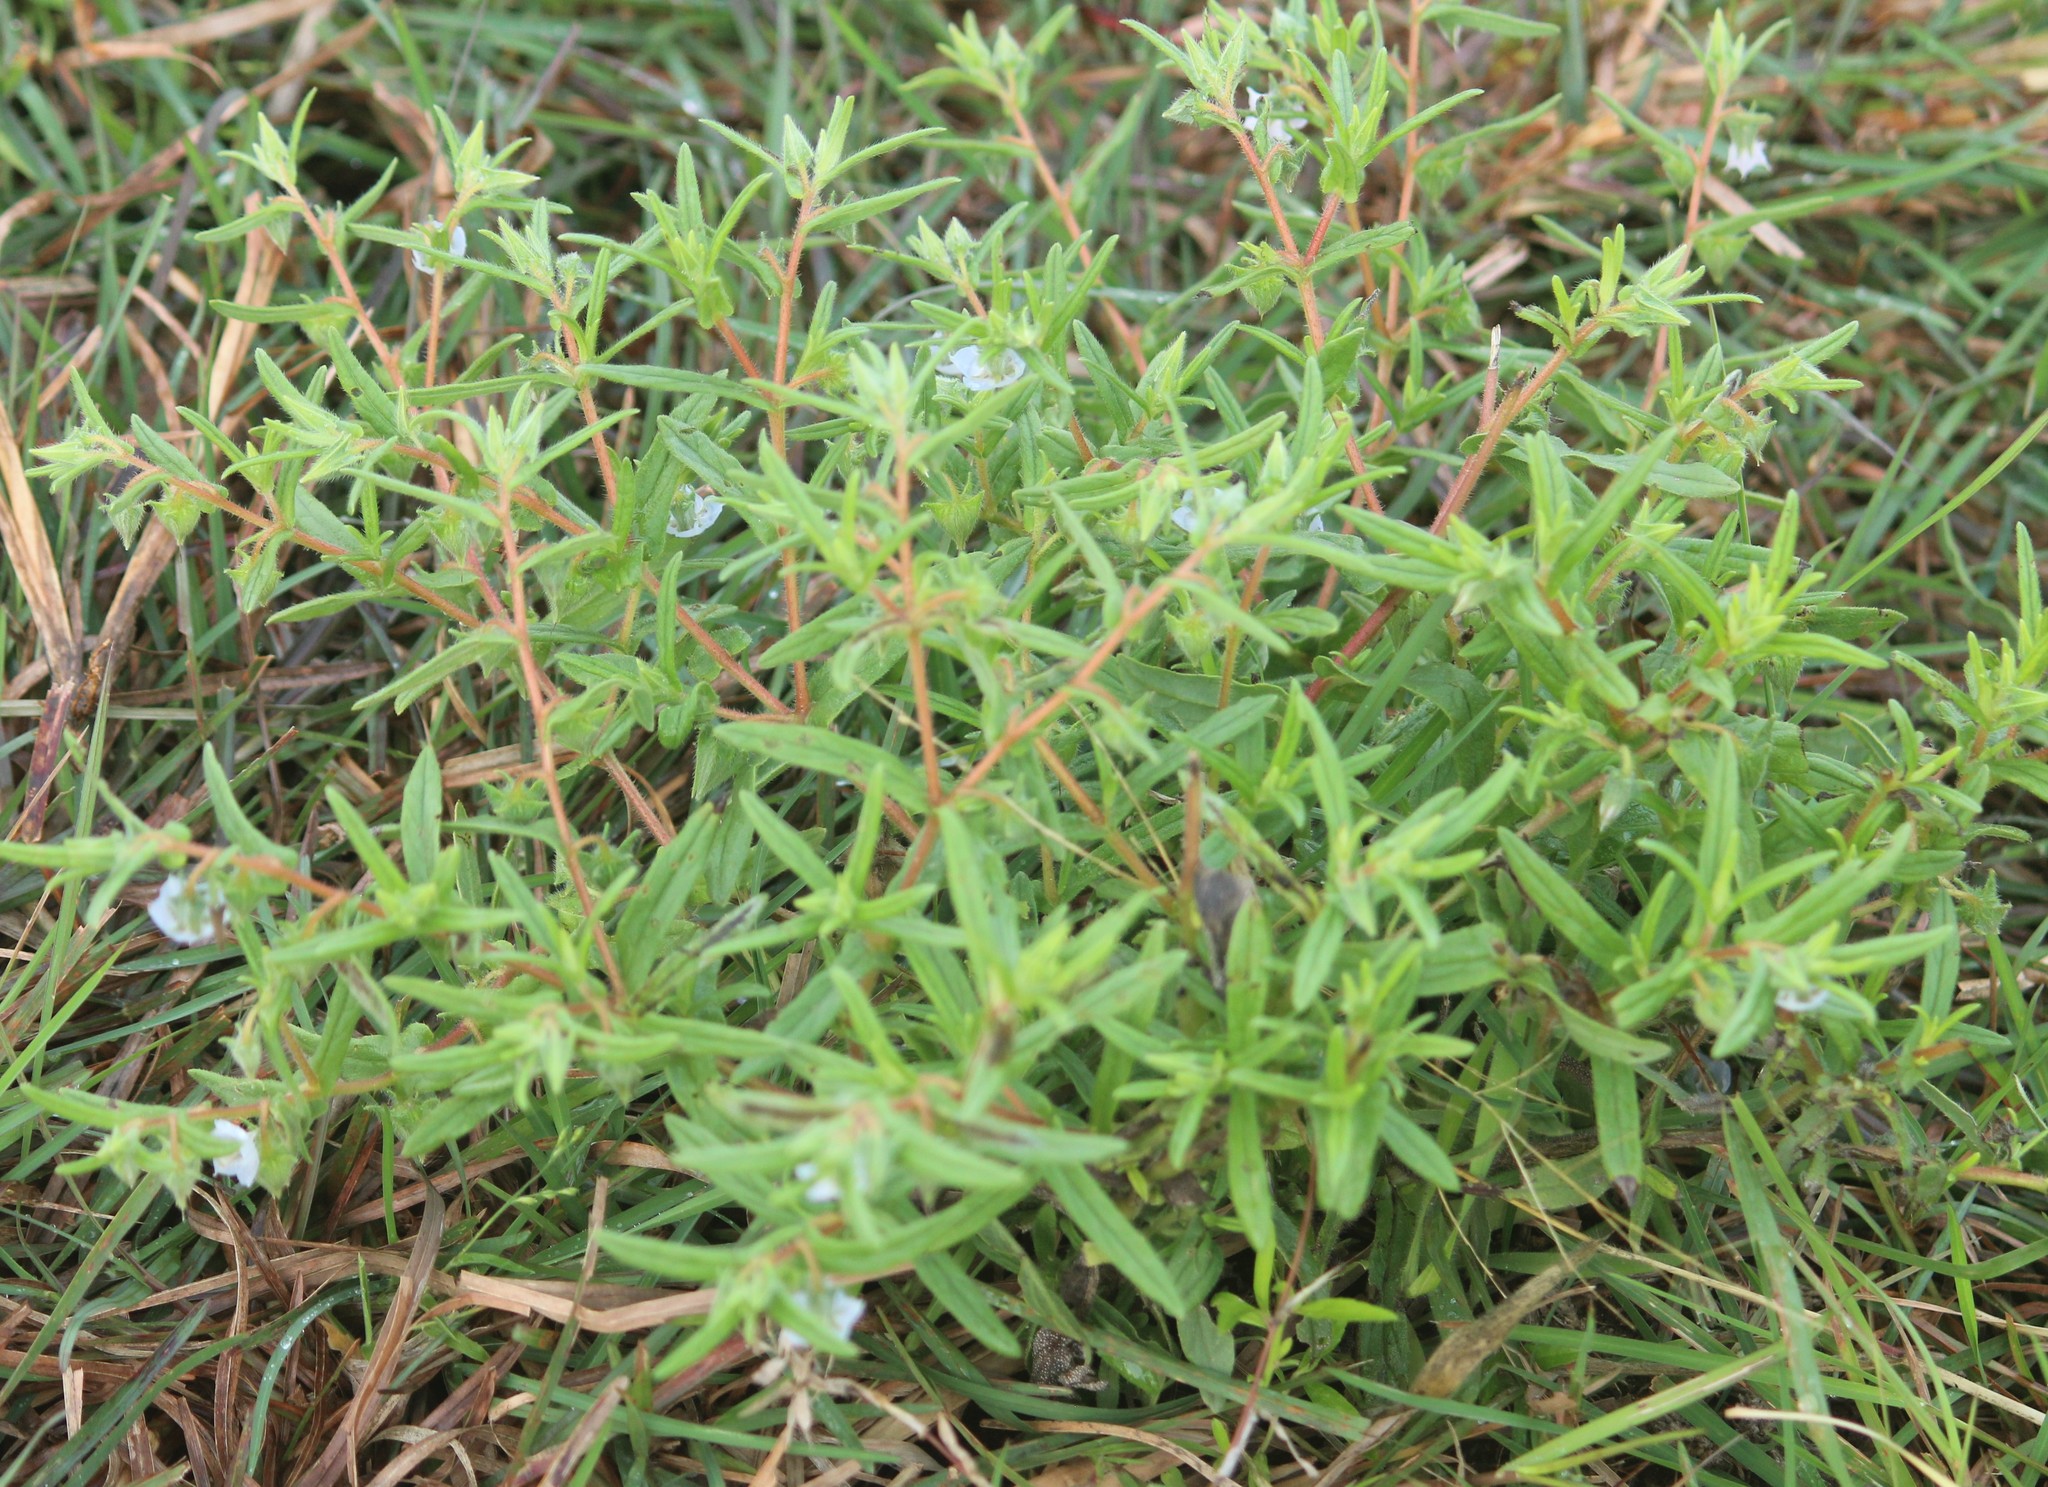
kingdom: Plantae
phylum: Tracheophyta
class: Magnoliopsida
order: Boraginales
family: Boraginaceae
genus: Trichodesma
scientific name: Trichodesma indicum
